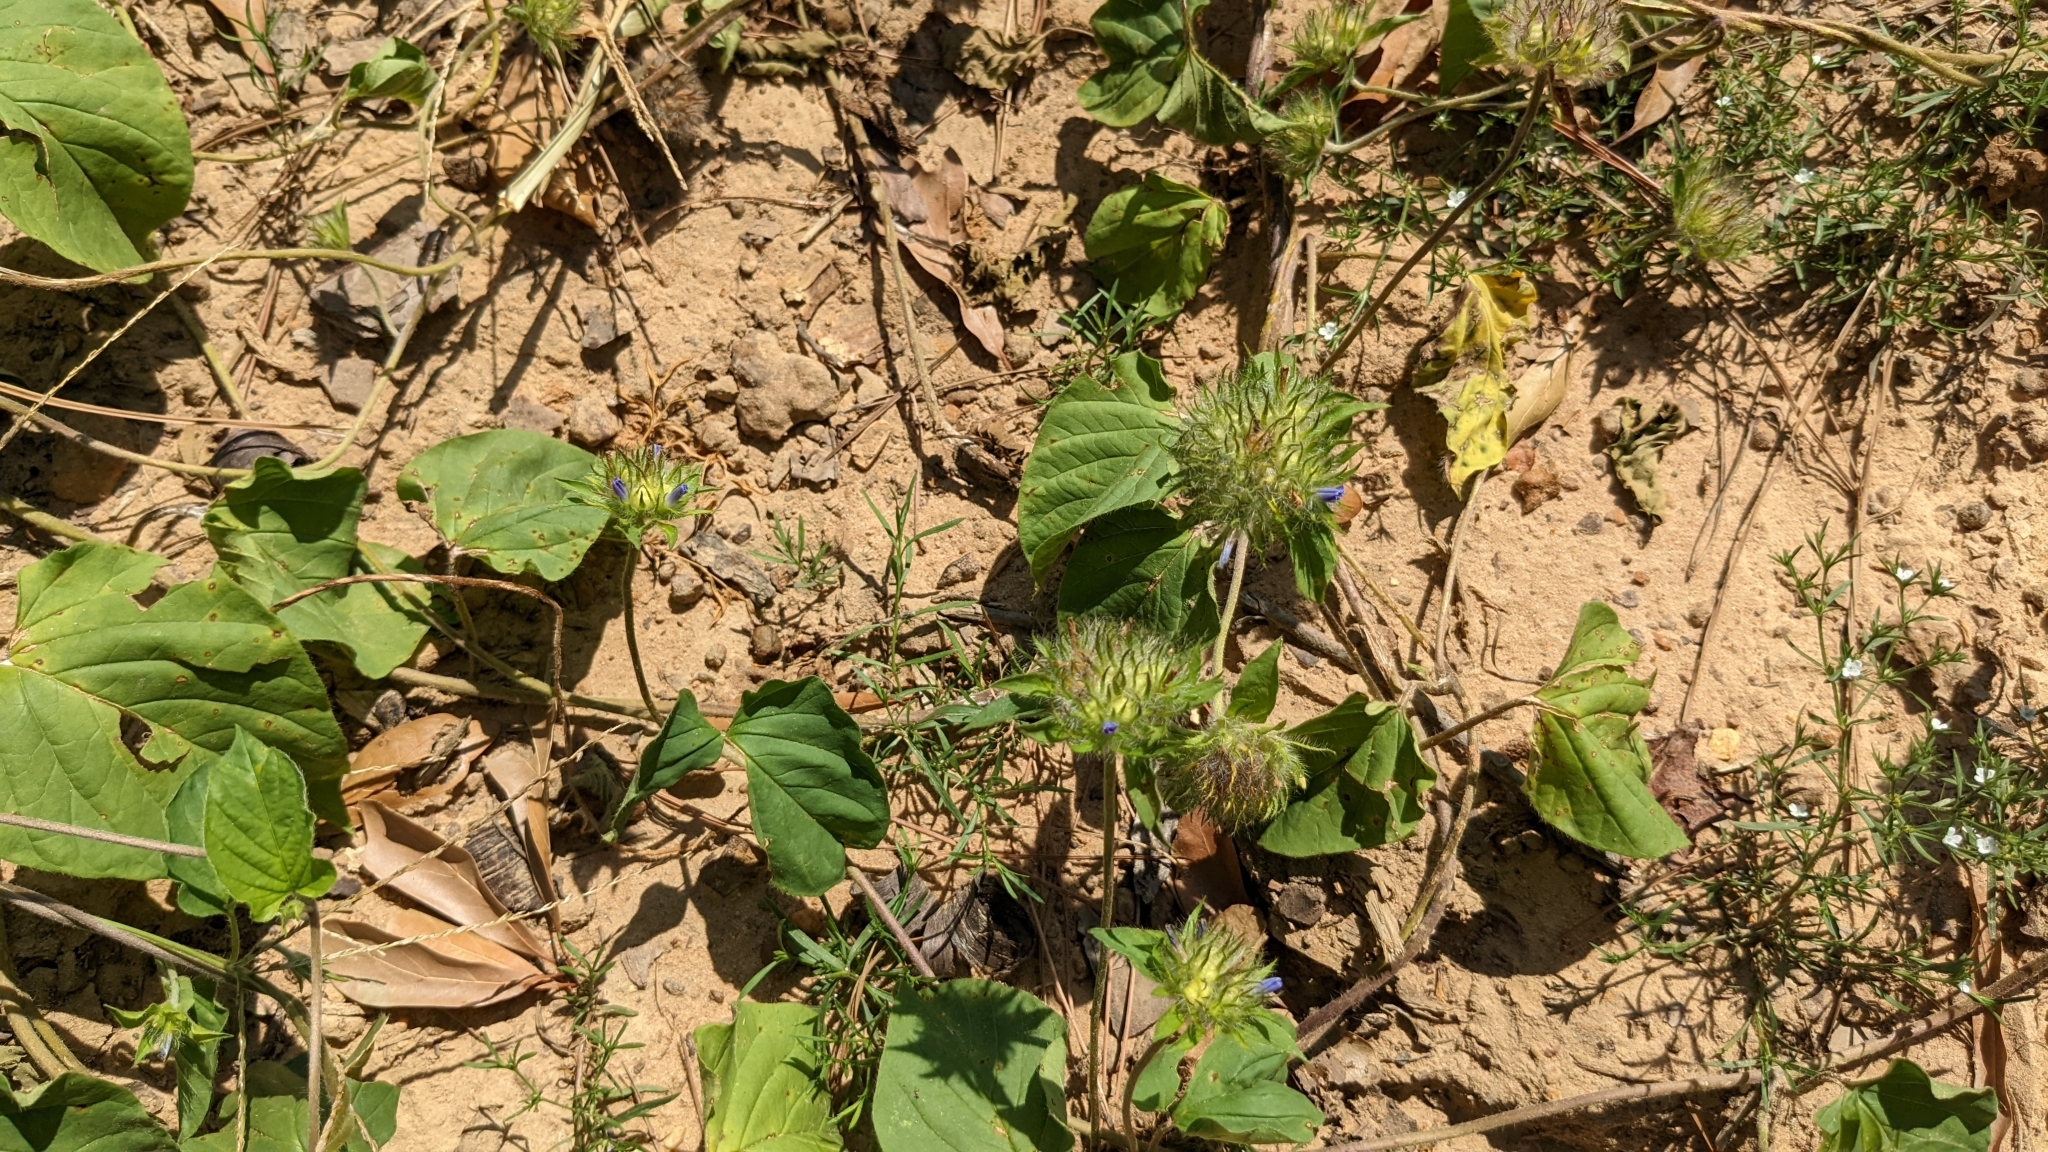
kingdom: Plantae
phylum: Tracheophyta
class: Magnoliopsida
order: Solanales
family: Convolvulaceae
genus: Jacquemontia
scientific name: Jacquemontia tamnifolia
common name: Hairy clustervine
